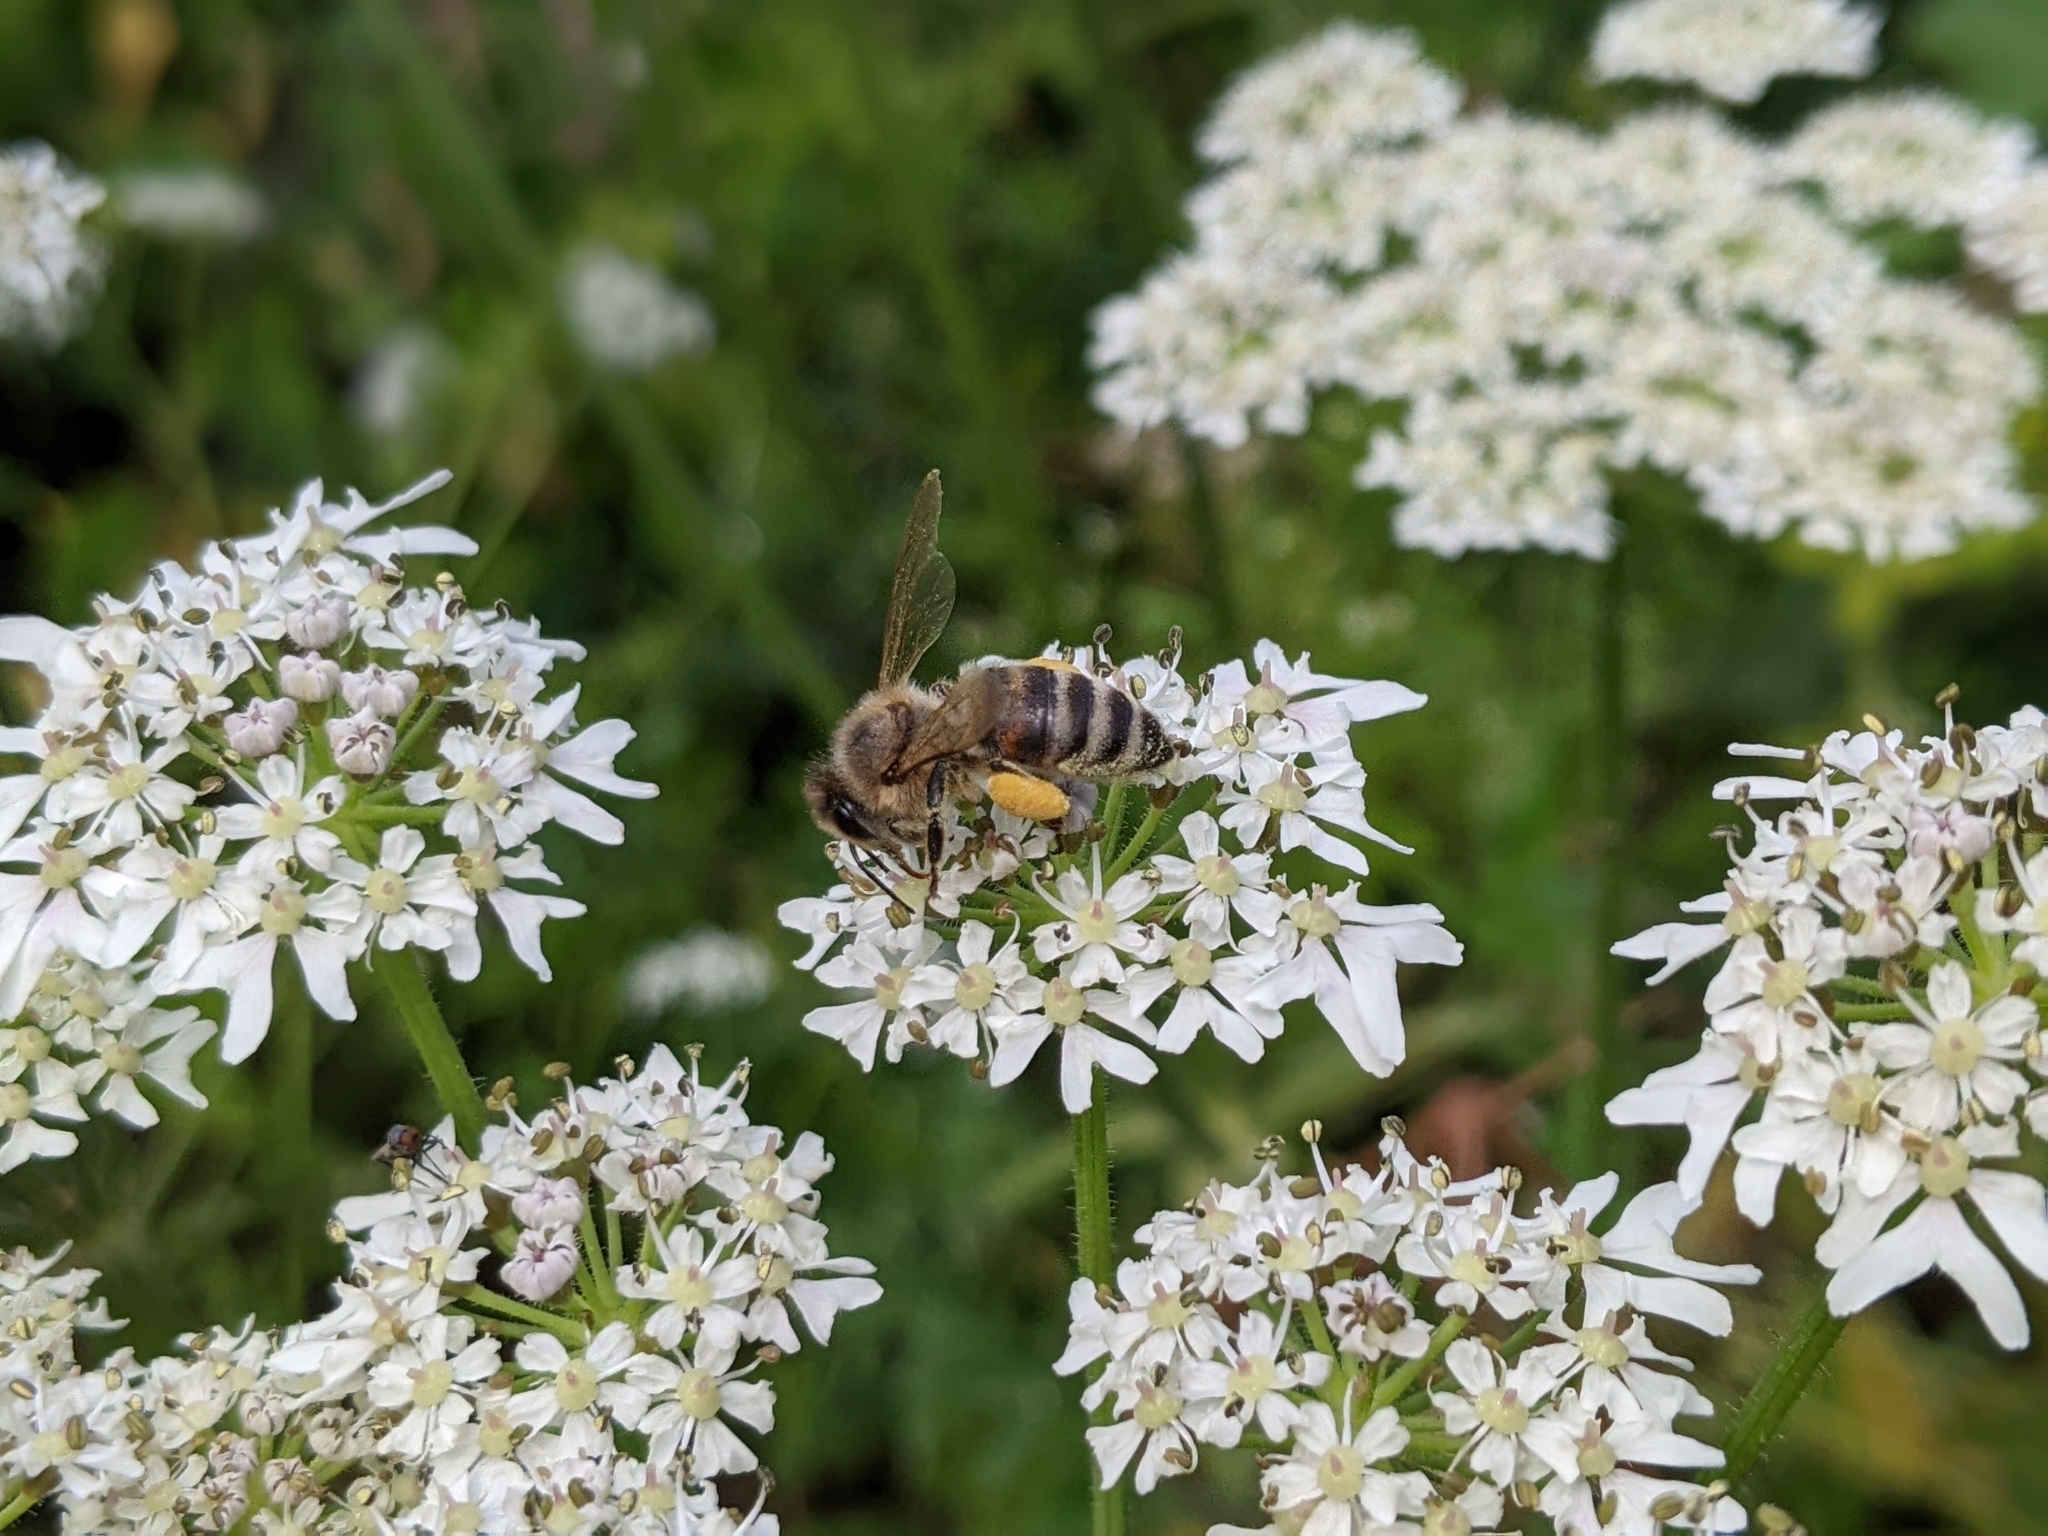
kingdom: Animalia
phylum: Arthropoda
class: Insecta
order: Hymenoptera
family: Apidae
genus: Apis
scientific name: Apis mellifera
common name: Honey bee
